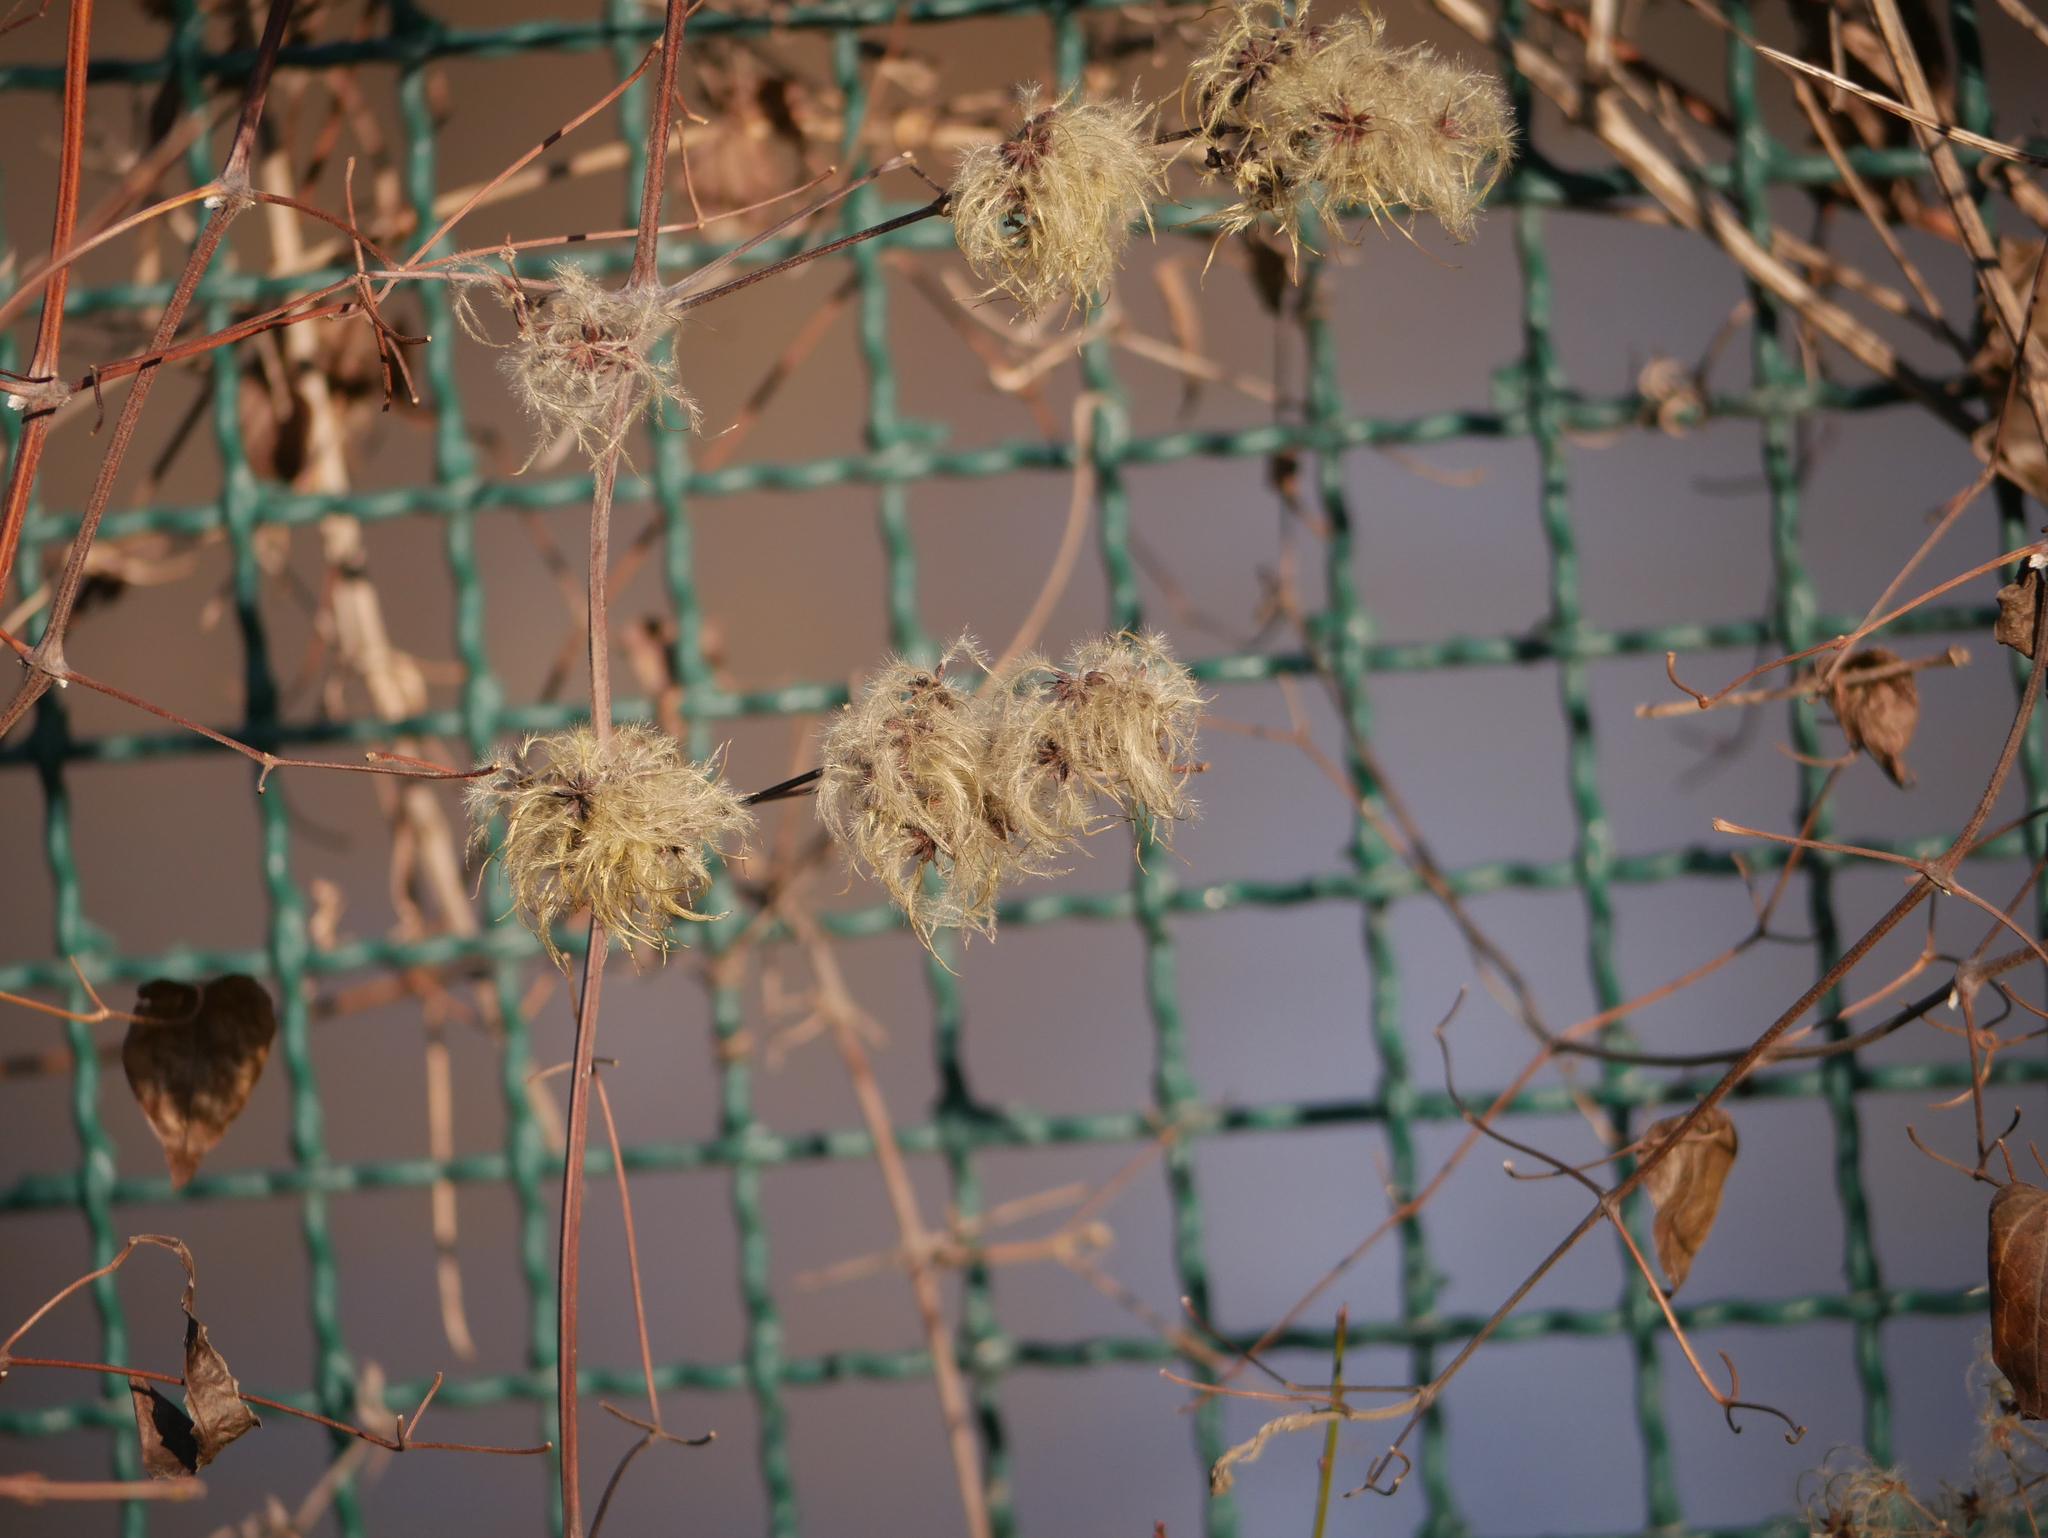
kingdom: Plantae
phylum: Tracheophyta
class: Magnoliopsida
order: Ranunculales
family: Ranunculaceae
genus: Clematis
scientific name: Clematis vitalba
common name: Evergreen clematis
